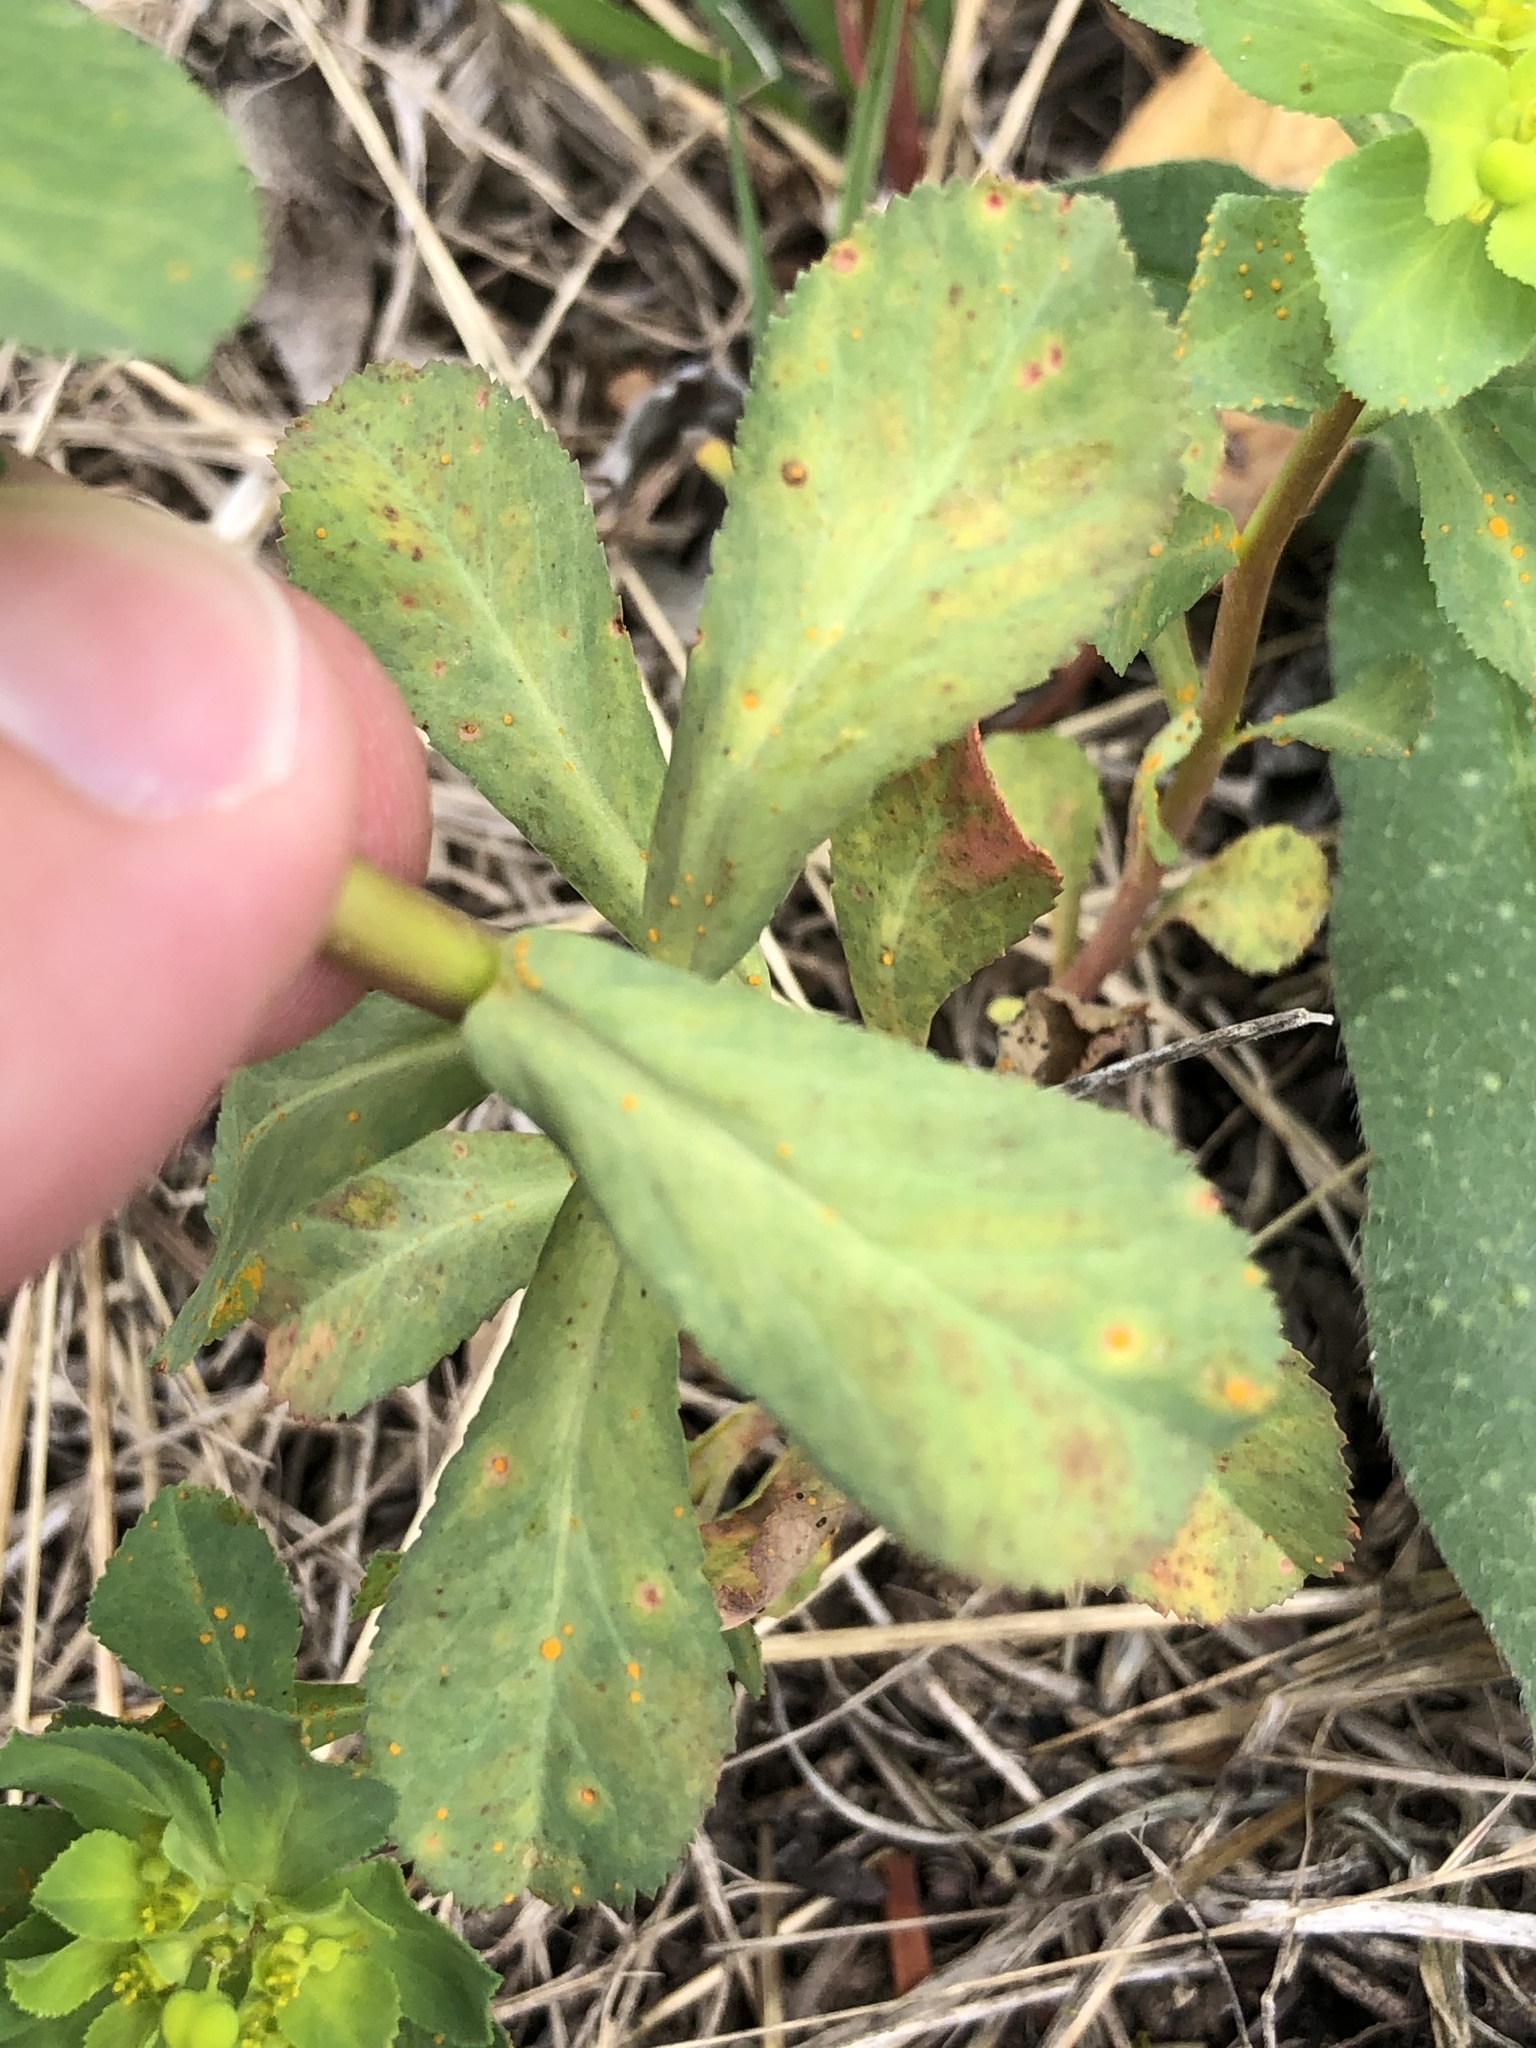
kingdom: Plantae
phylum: Tracheophyta
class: Magnoliopsida
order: Malpighiales
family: Euphorbiaceae
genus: Euphorbia
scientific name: Euphorbia helioscopia
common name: Sun spurge
